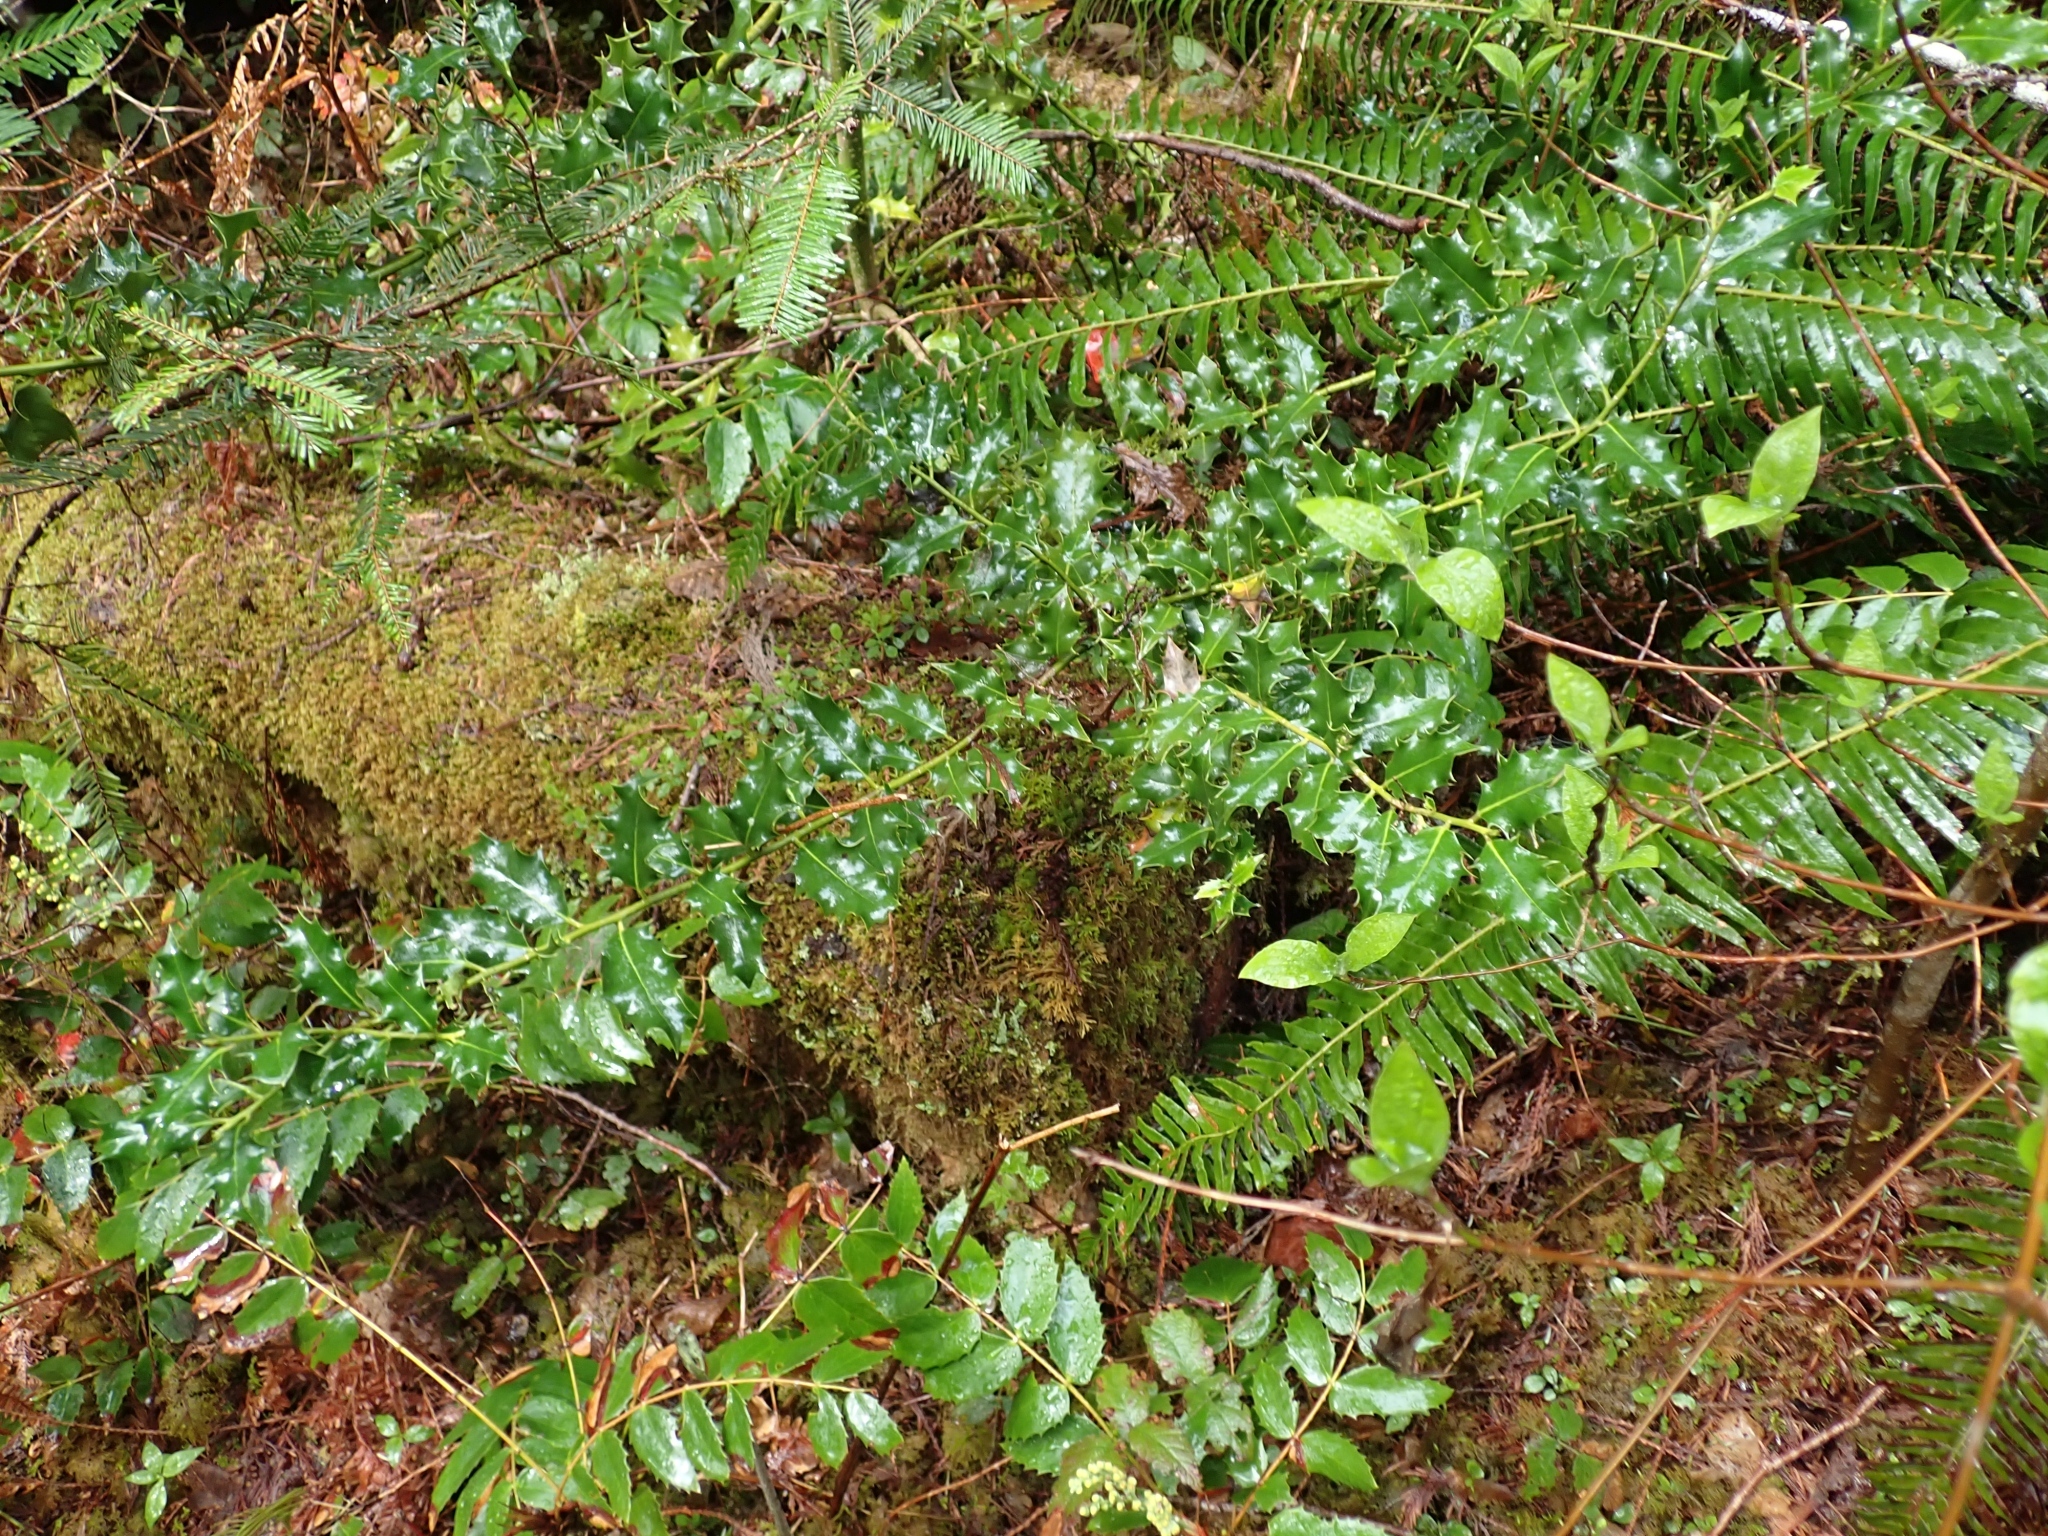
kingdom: Plantae
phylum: Tracheophyta
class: Magnoliopsida
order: Aquifoliales
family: Aquifoliaceae
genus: Ilex
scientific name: Ilex aquifolium
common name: English holly
